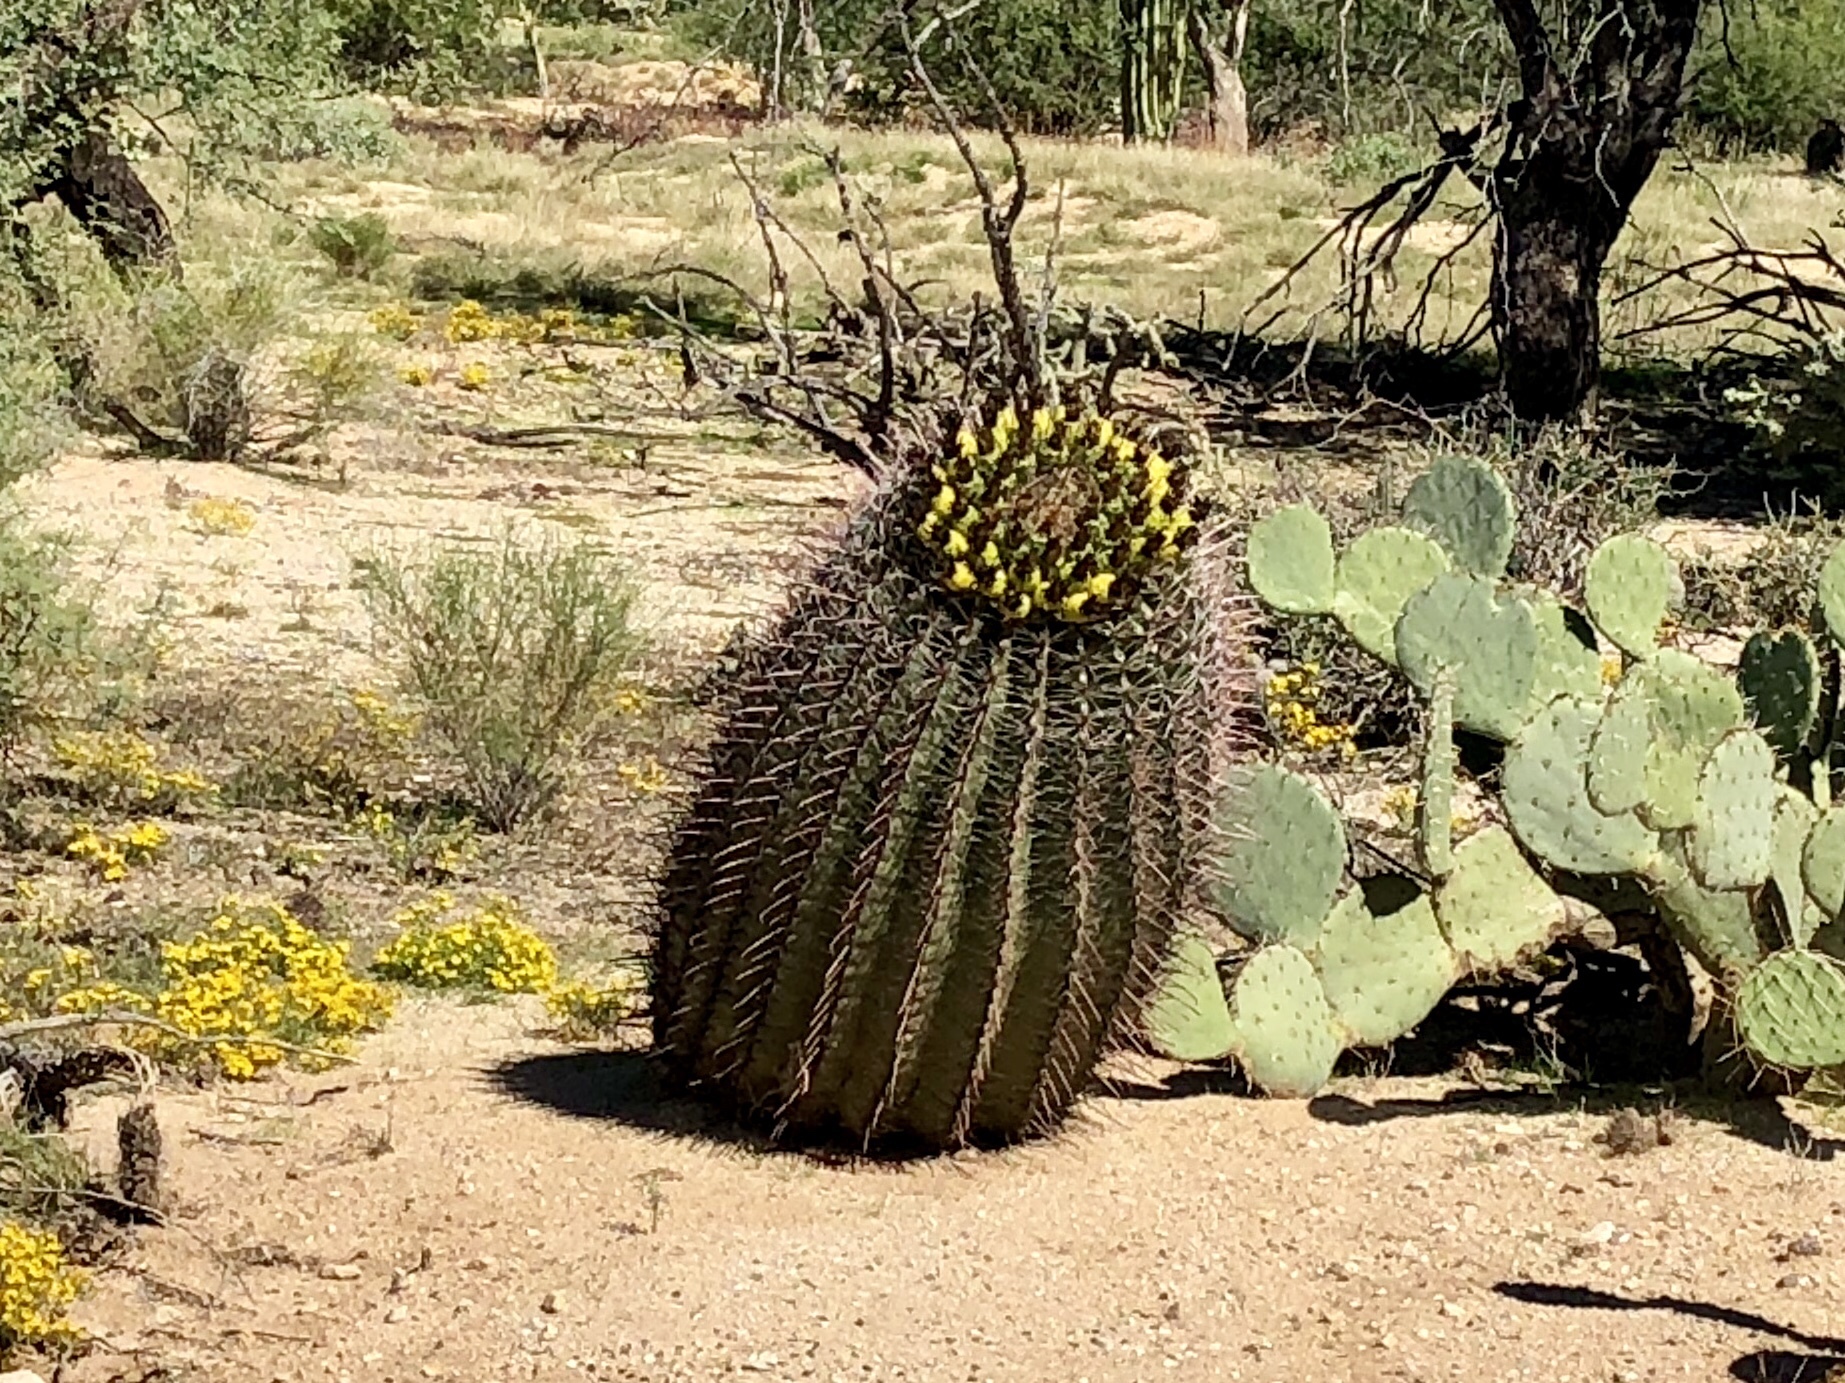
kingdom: Plantae
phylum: Tracheophyta
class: Magnoliopsida
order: Caryophyllales
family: Cactaceae
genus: Ferocactus
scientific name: Ferocactus wislizeni
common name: Candy barrel cactus
